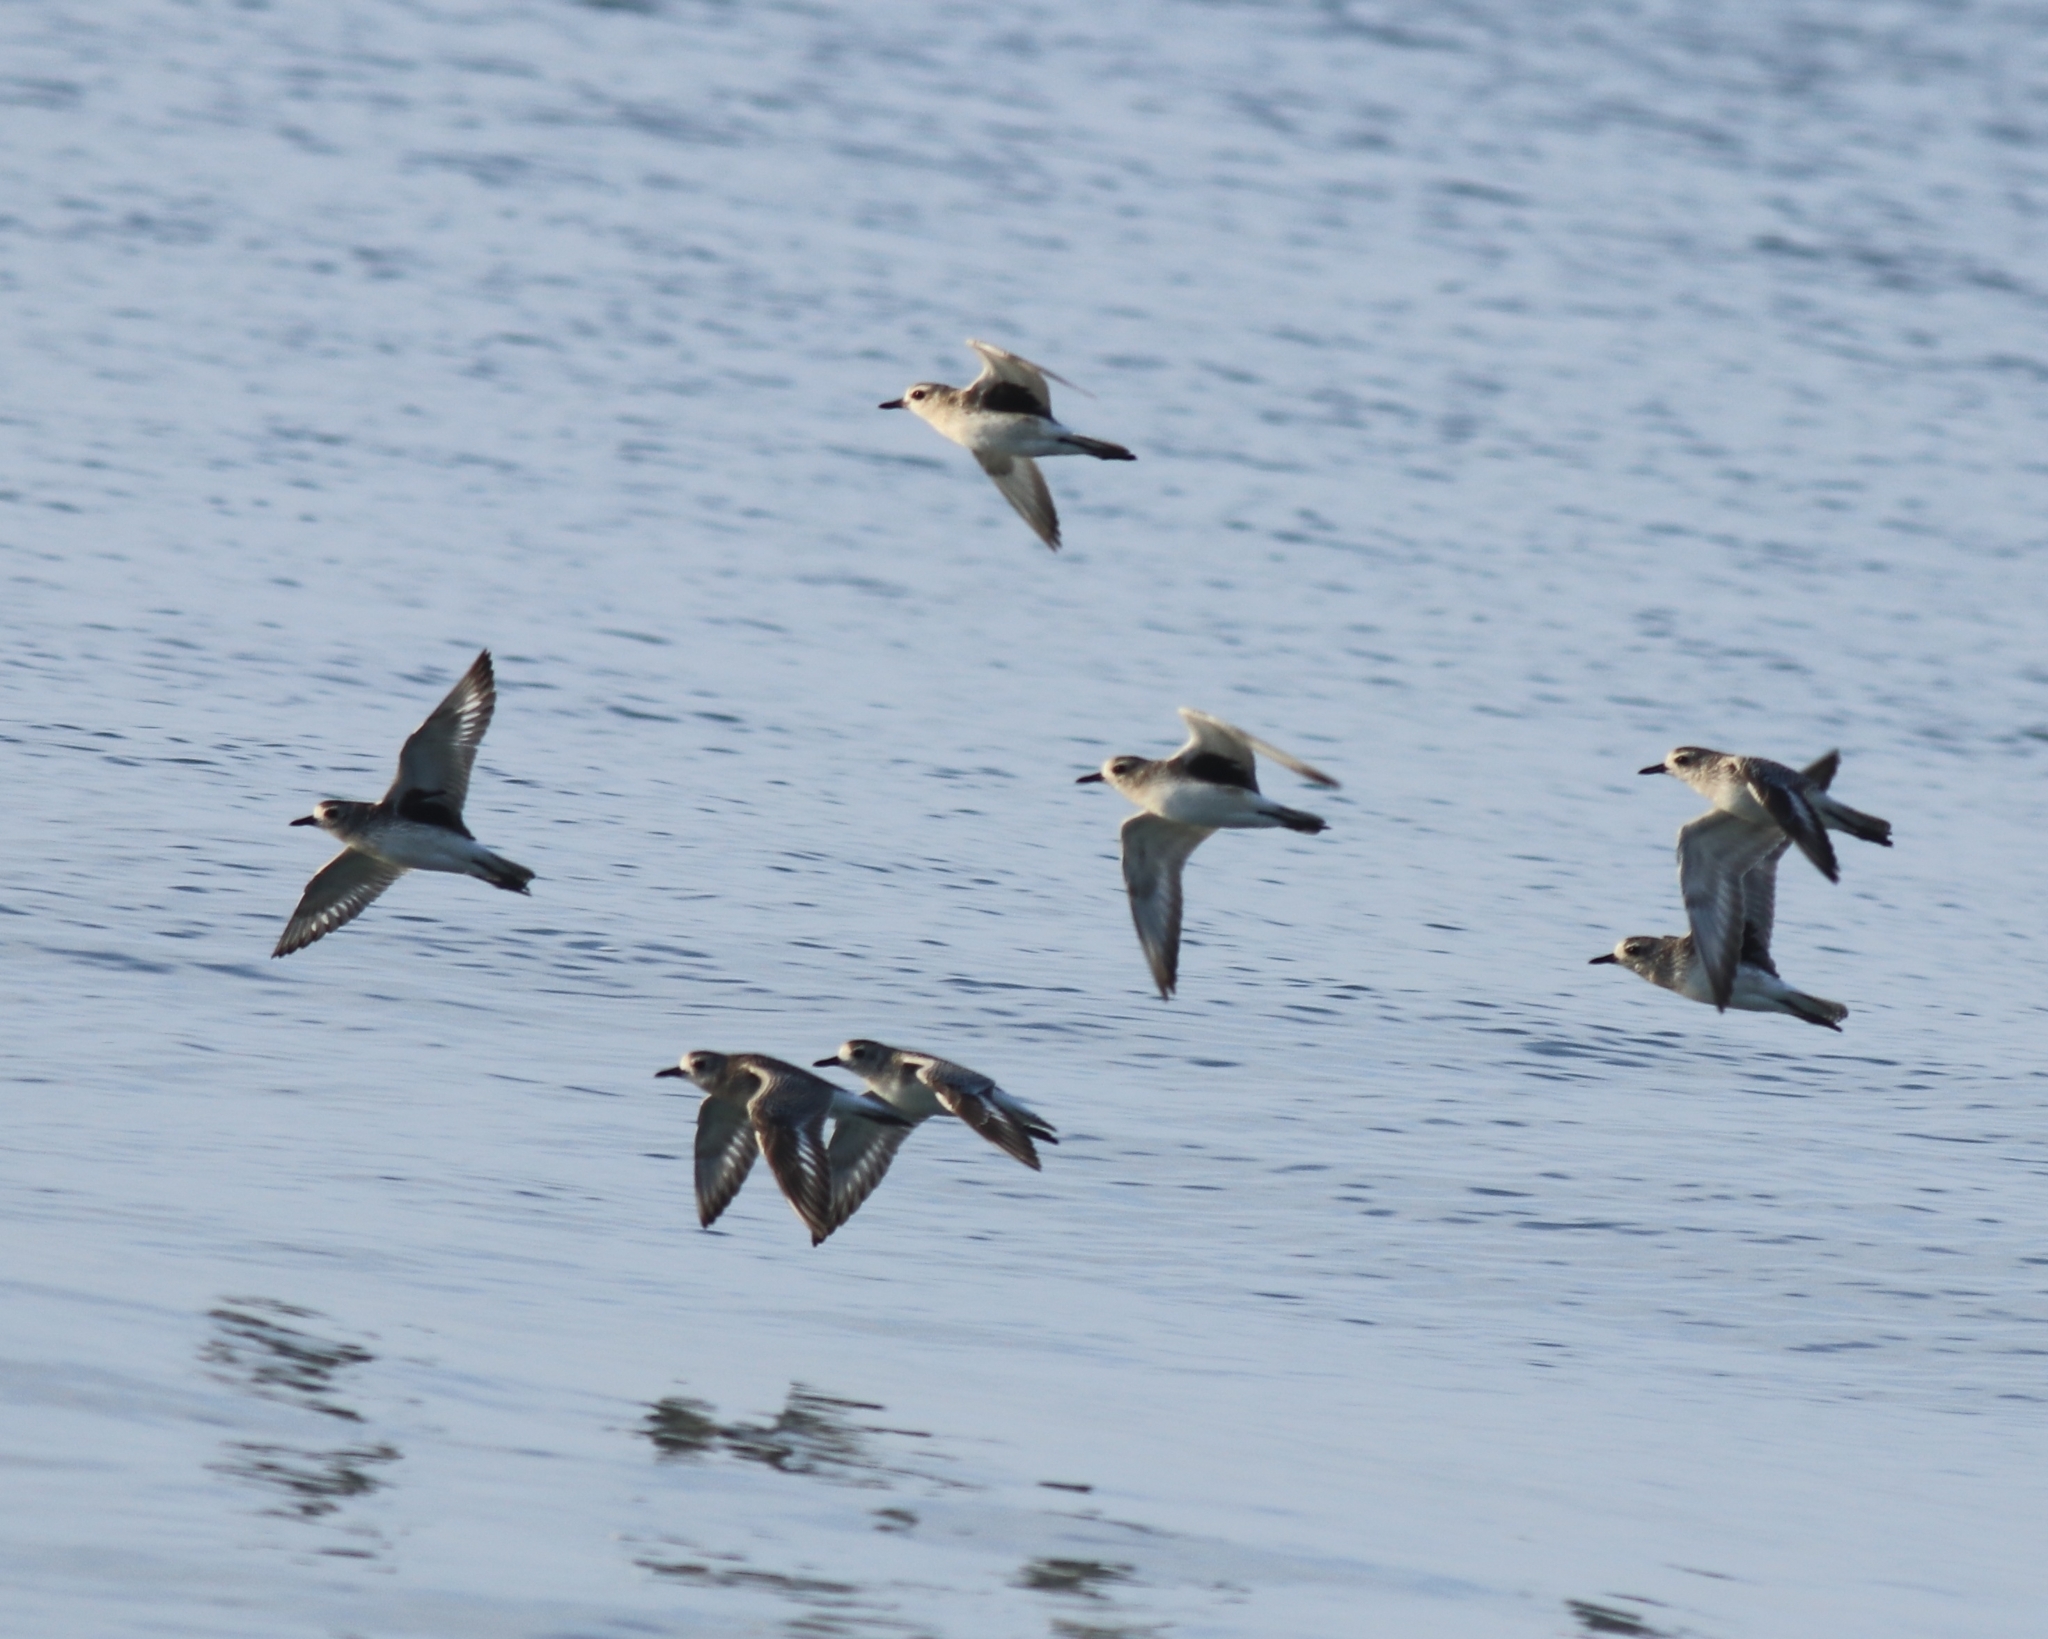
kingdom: Animalia
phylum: Chordata
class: Aves
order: Charadriiformes
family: Charadriidae
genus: Pluvialis
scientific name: Pluvialis squatarola
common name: Grey plover
